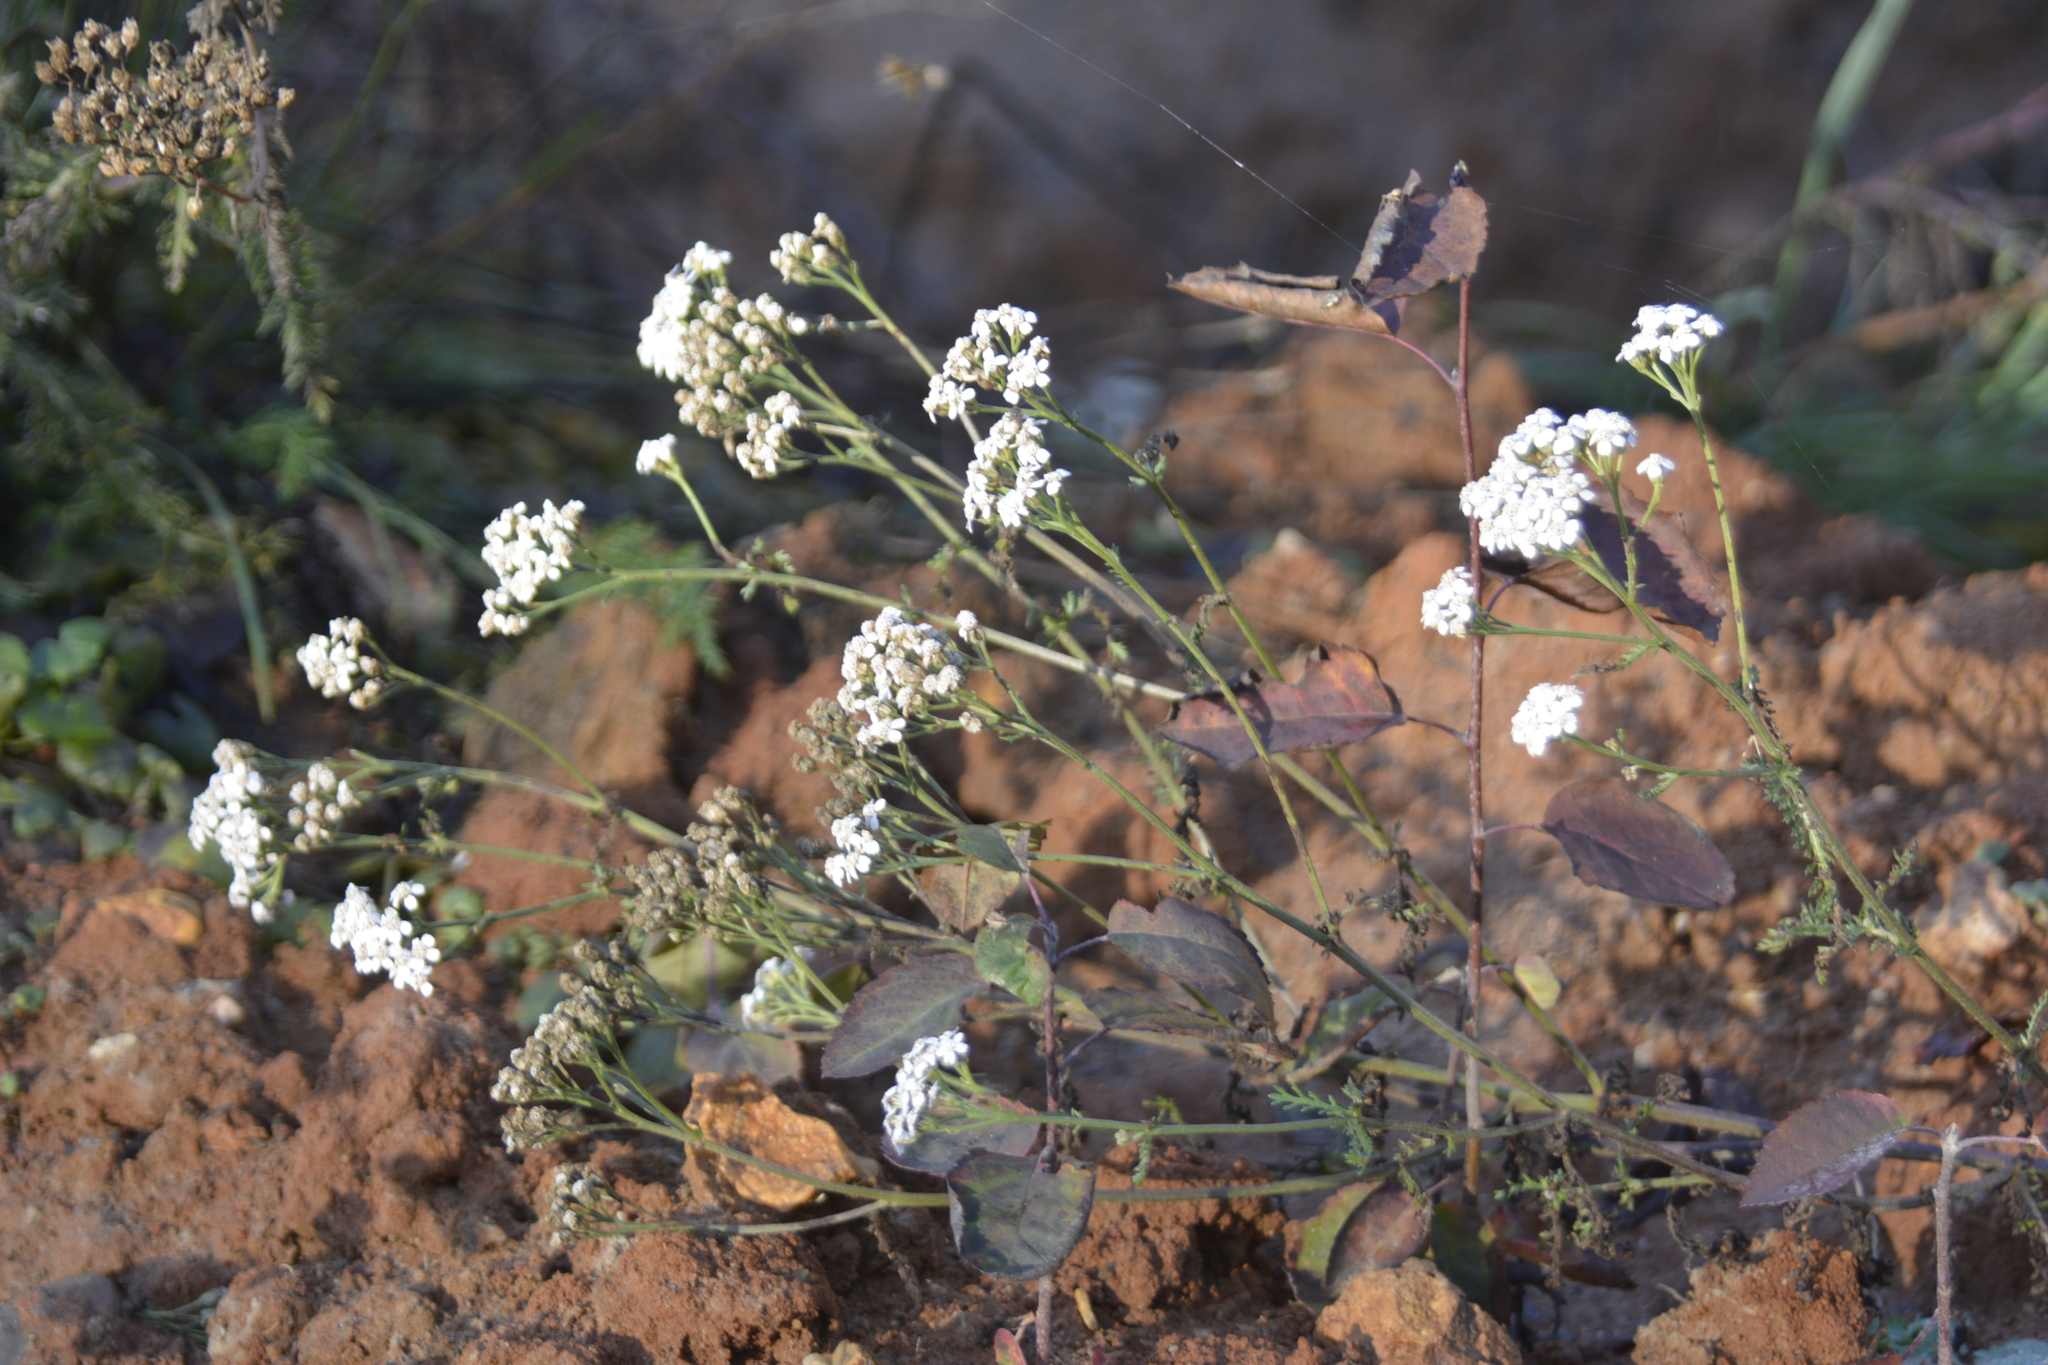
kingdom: Plantae
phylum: Tracheophyta
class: Magnoliopsida
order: Asterales
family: Asteraceae
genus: Achillea
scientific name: Achillea millefolium
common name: Yarrow
